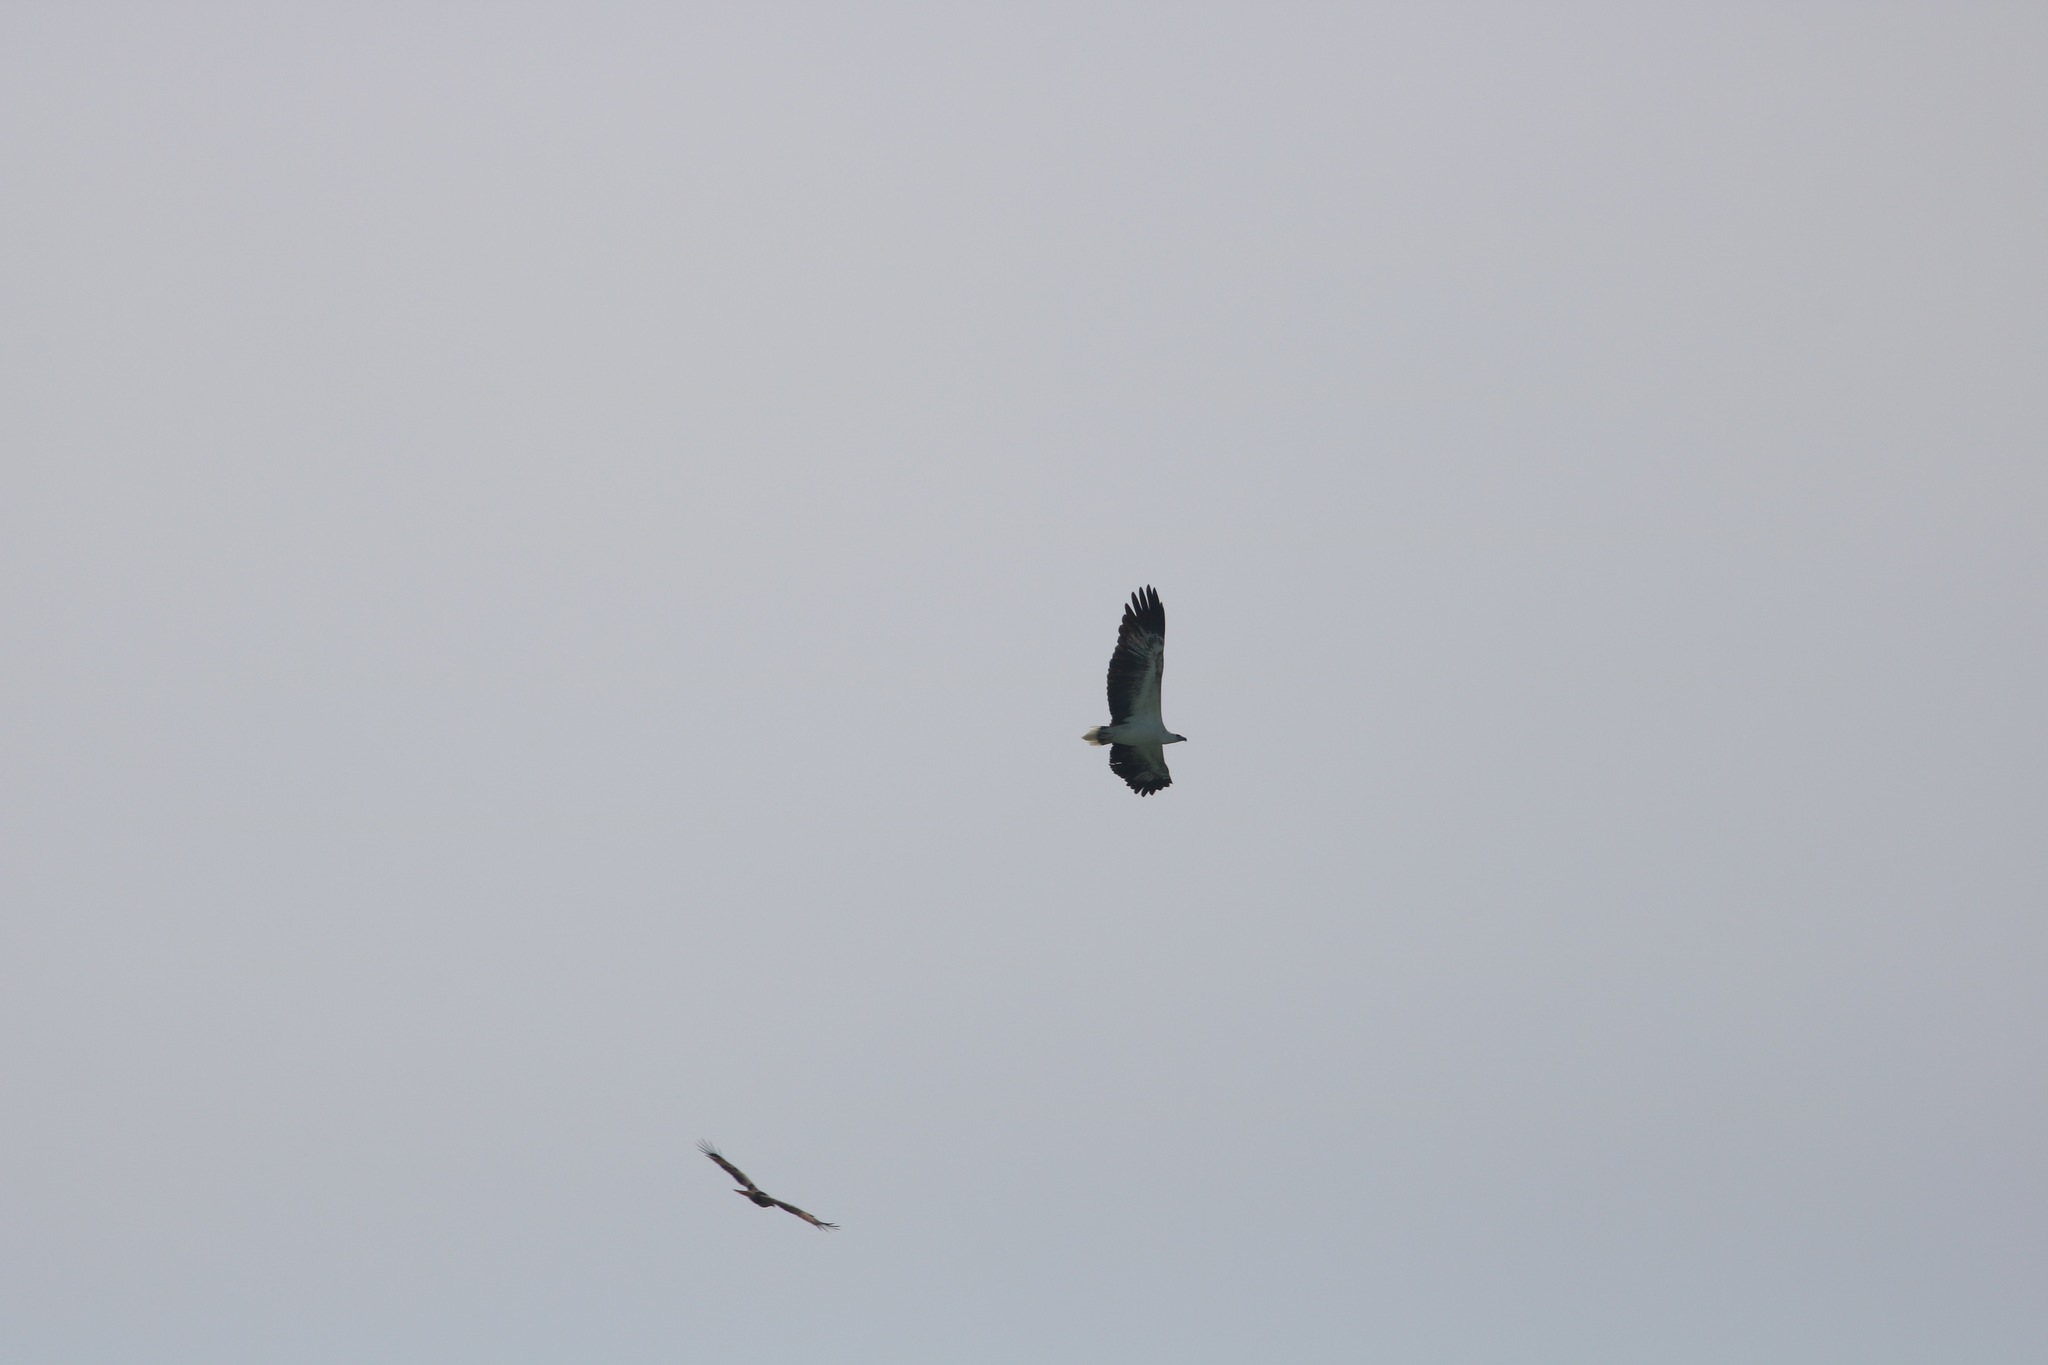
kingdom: Animalia
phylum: Chordata
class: Aves
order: Accipitriformes
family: Accipitridae
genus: Haliaeetus
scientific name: Haliaeetus leucogaster
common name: White-bellied sea eagle
